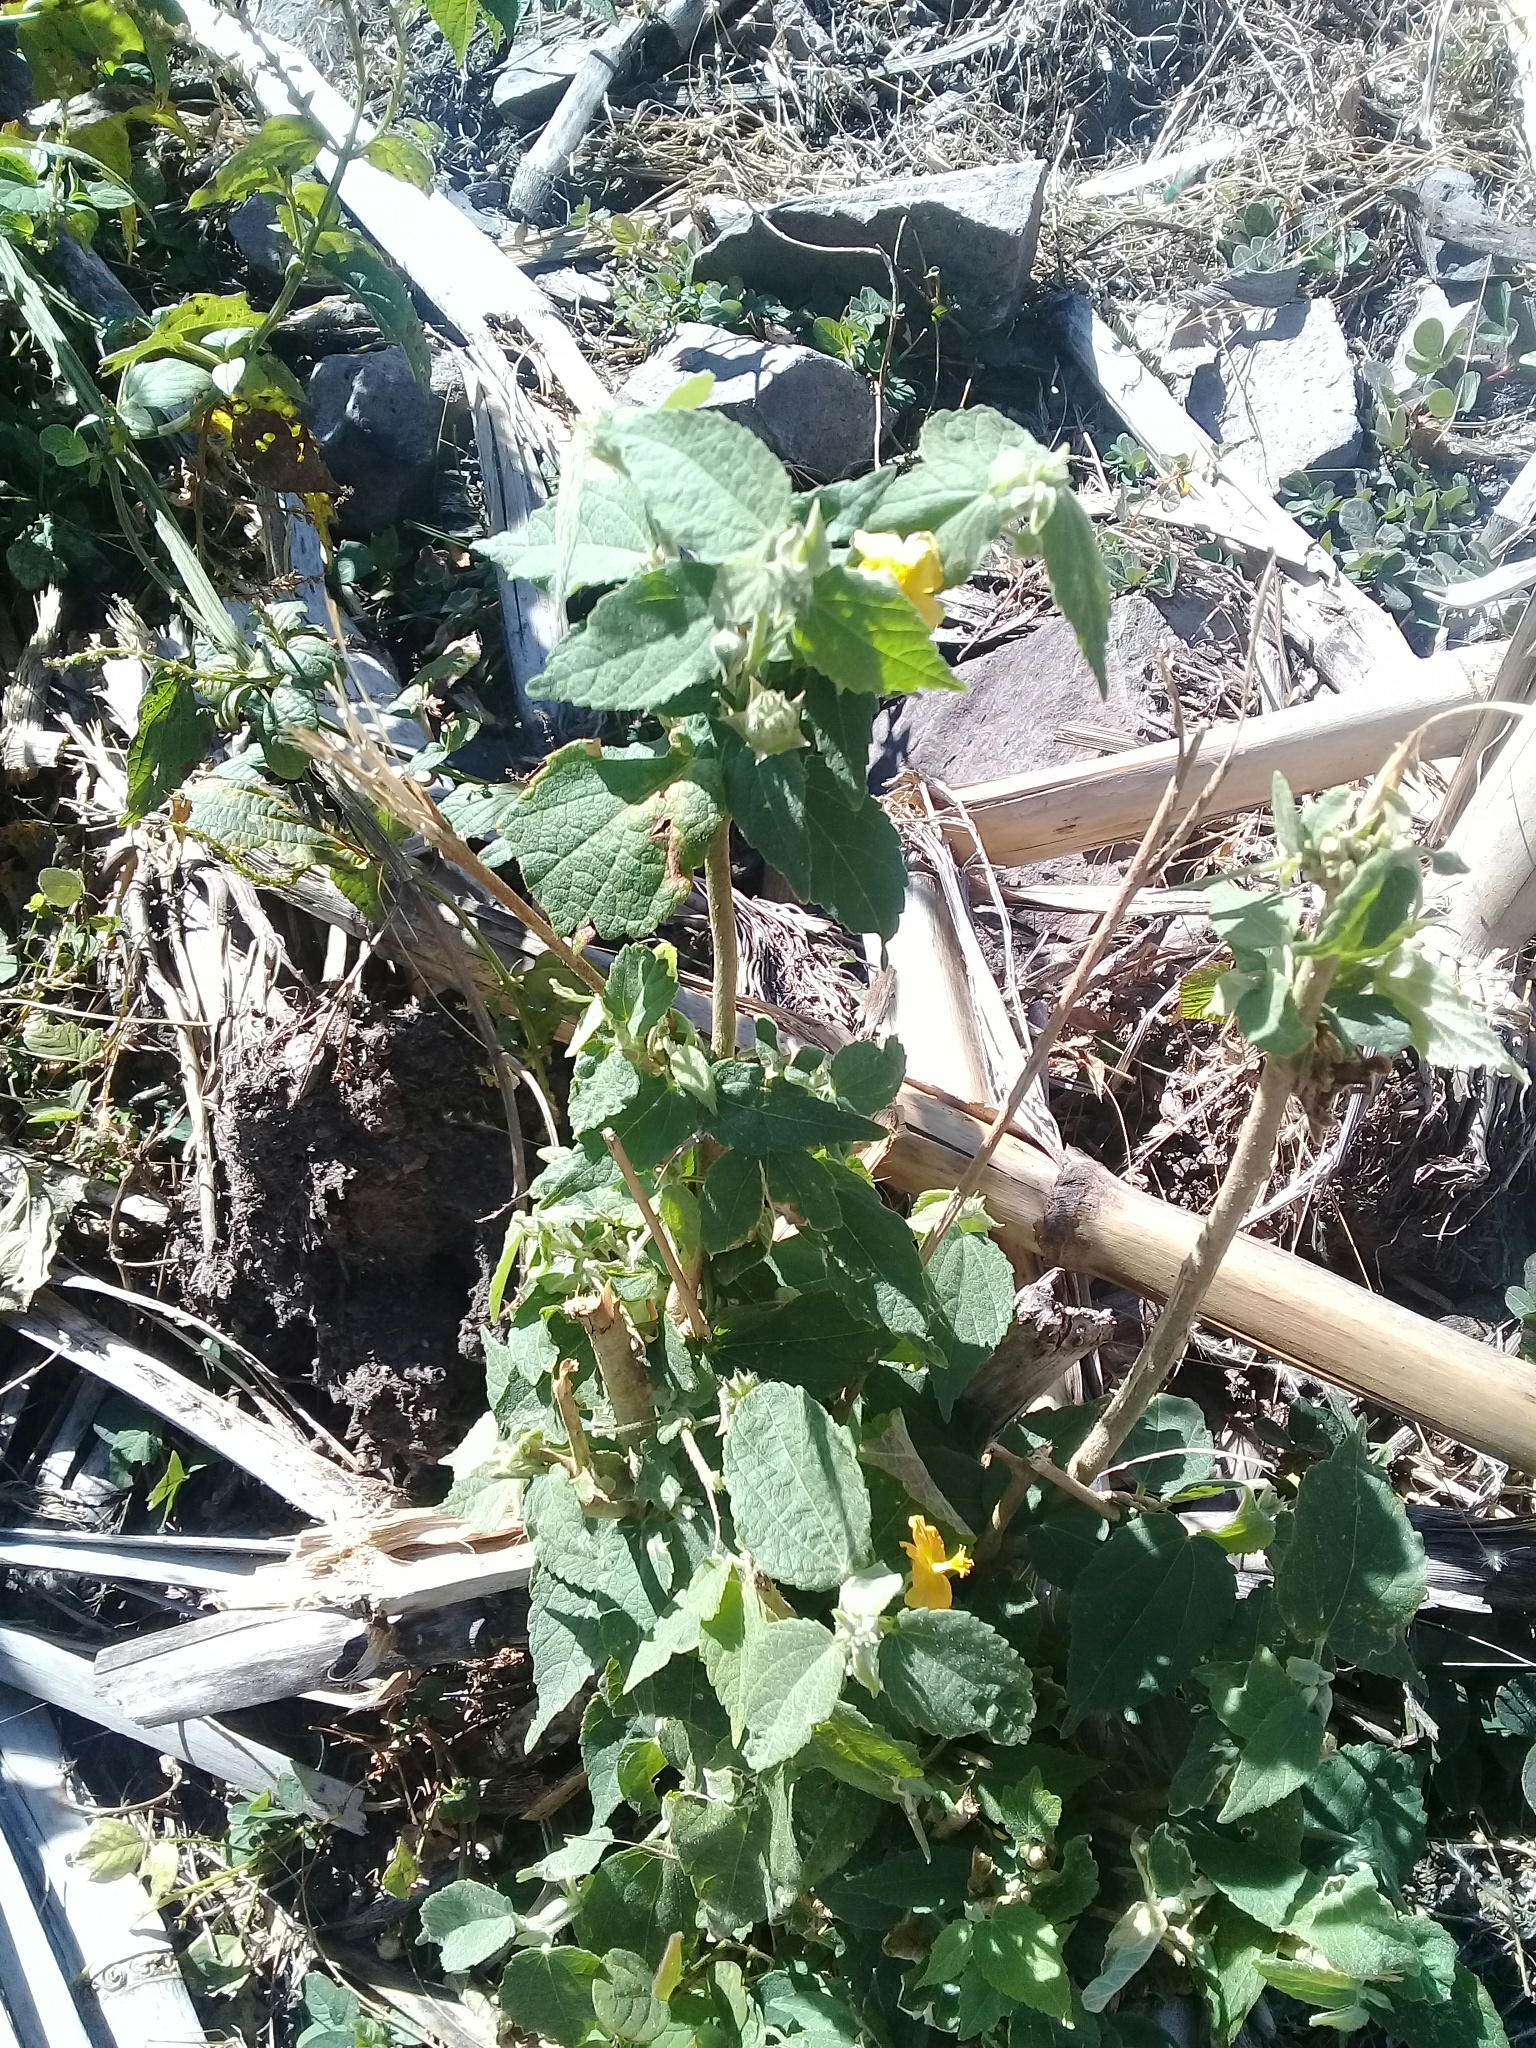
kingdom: Plantae
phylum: Tracheophyta
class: Magnoliopsida
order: Malvales
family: Malvaceae
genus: Sida
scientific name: Sida rhombifolia
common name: Queensland-hemp
